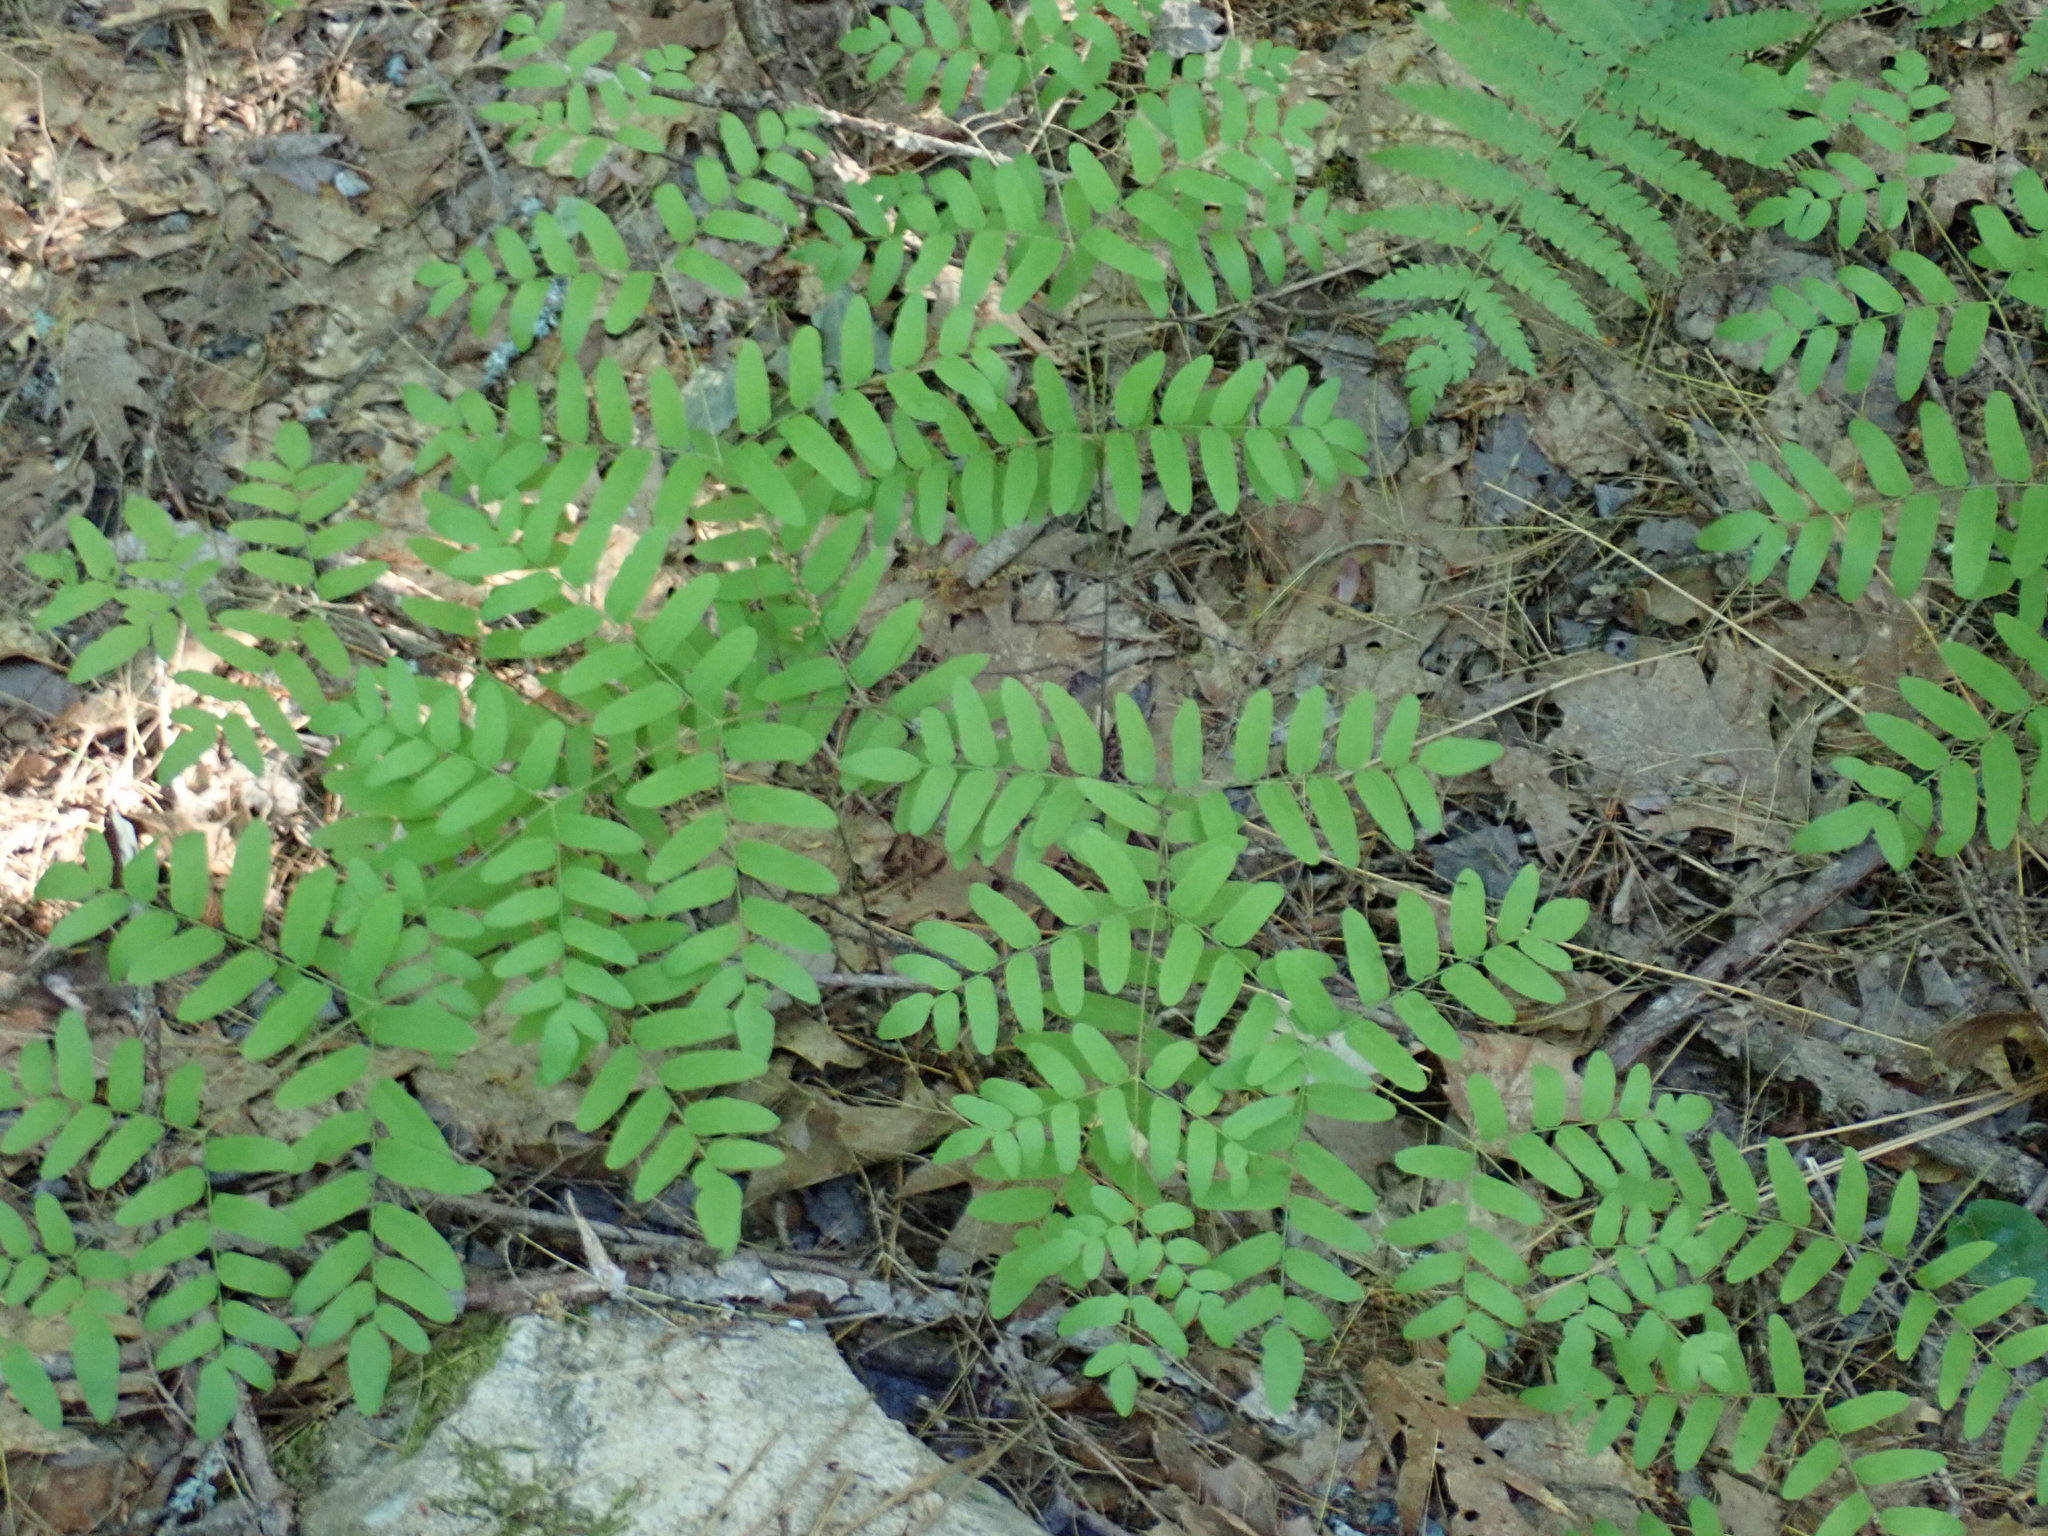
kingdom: Plantae
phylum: Tracheophyta
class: Polypodiopsida
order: Osmundales
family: Osmundaceae
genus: Osmunda
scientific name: Osmunda spectabilis
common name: American royal fern
